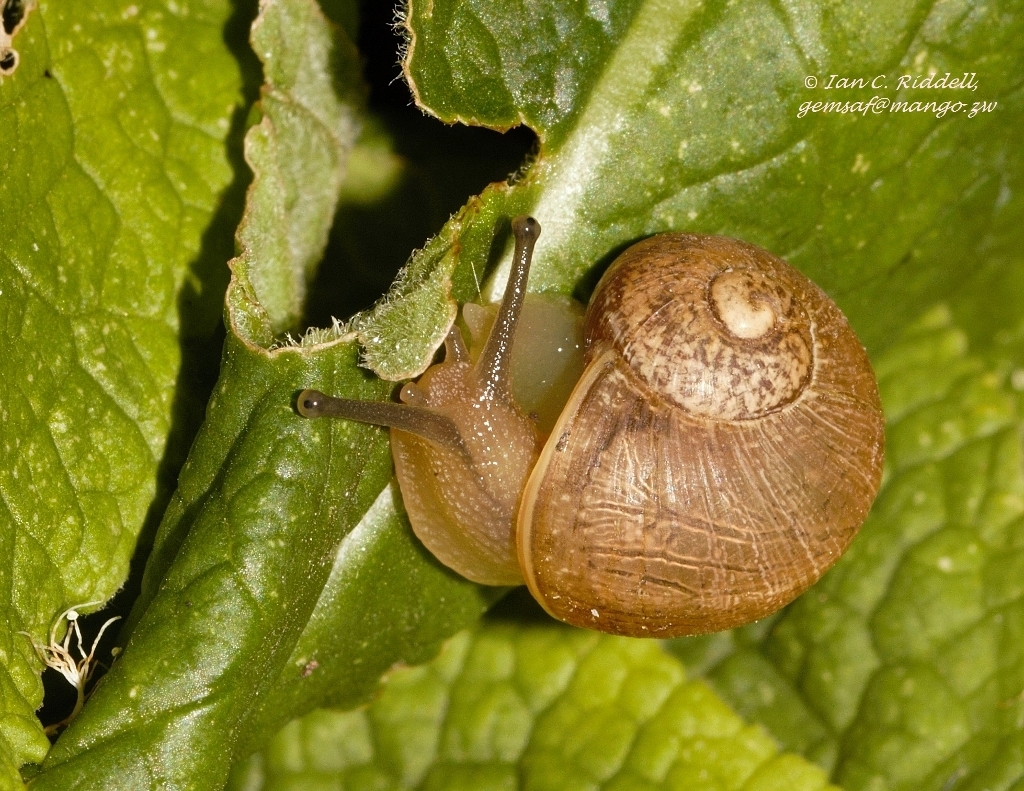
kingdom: Animalia
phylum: Mollusca
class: Gastropoda
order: Stylommatophora
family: Helicidae
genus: Cornu
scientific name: Cornu aspersum
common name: Brown garden snail
